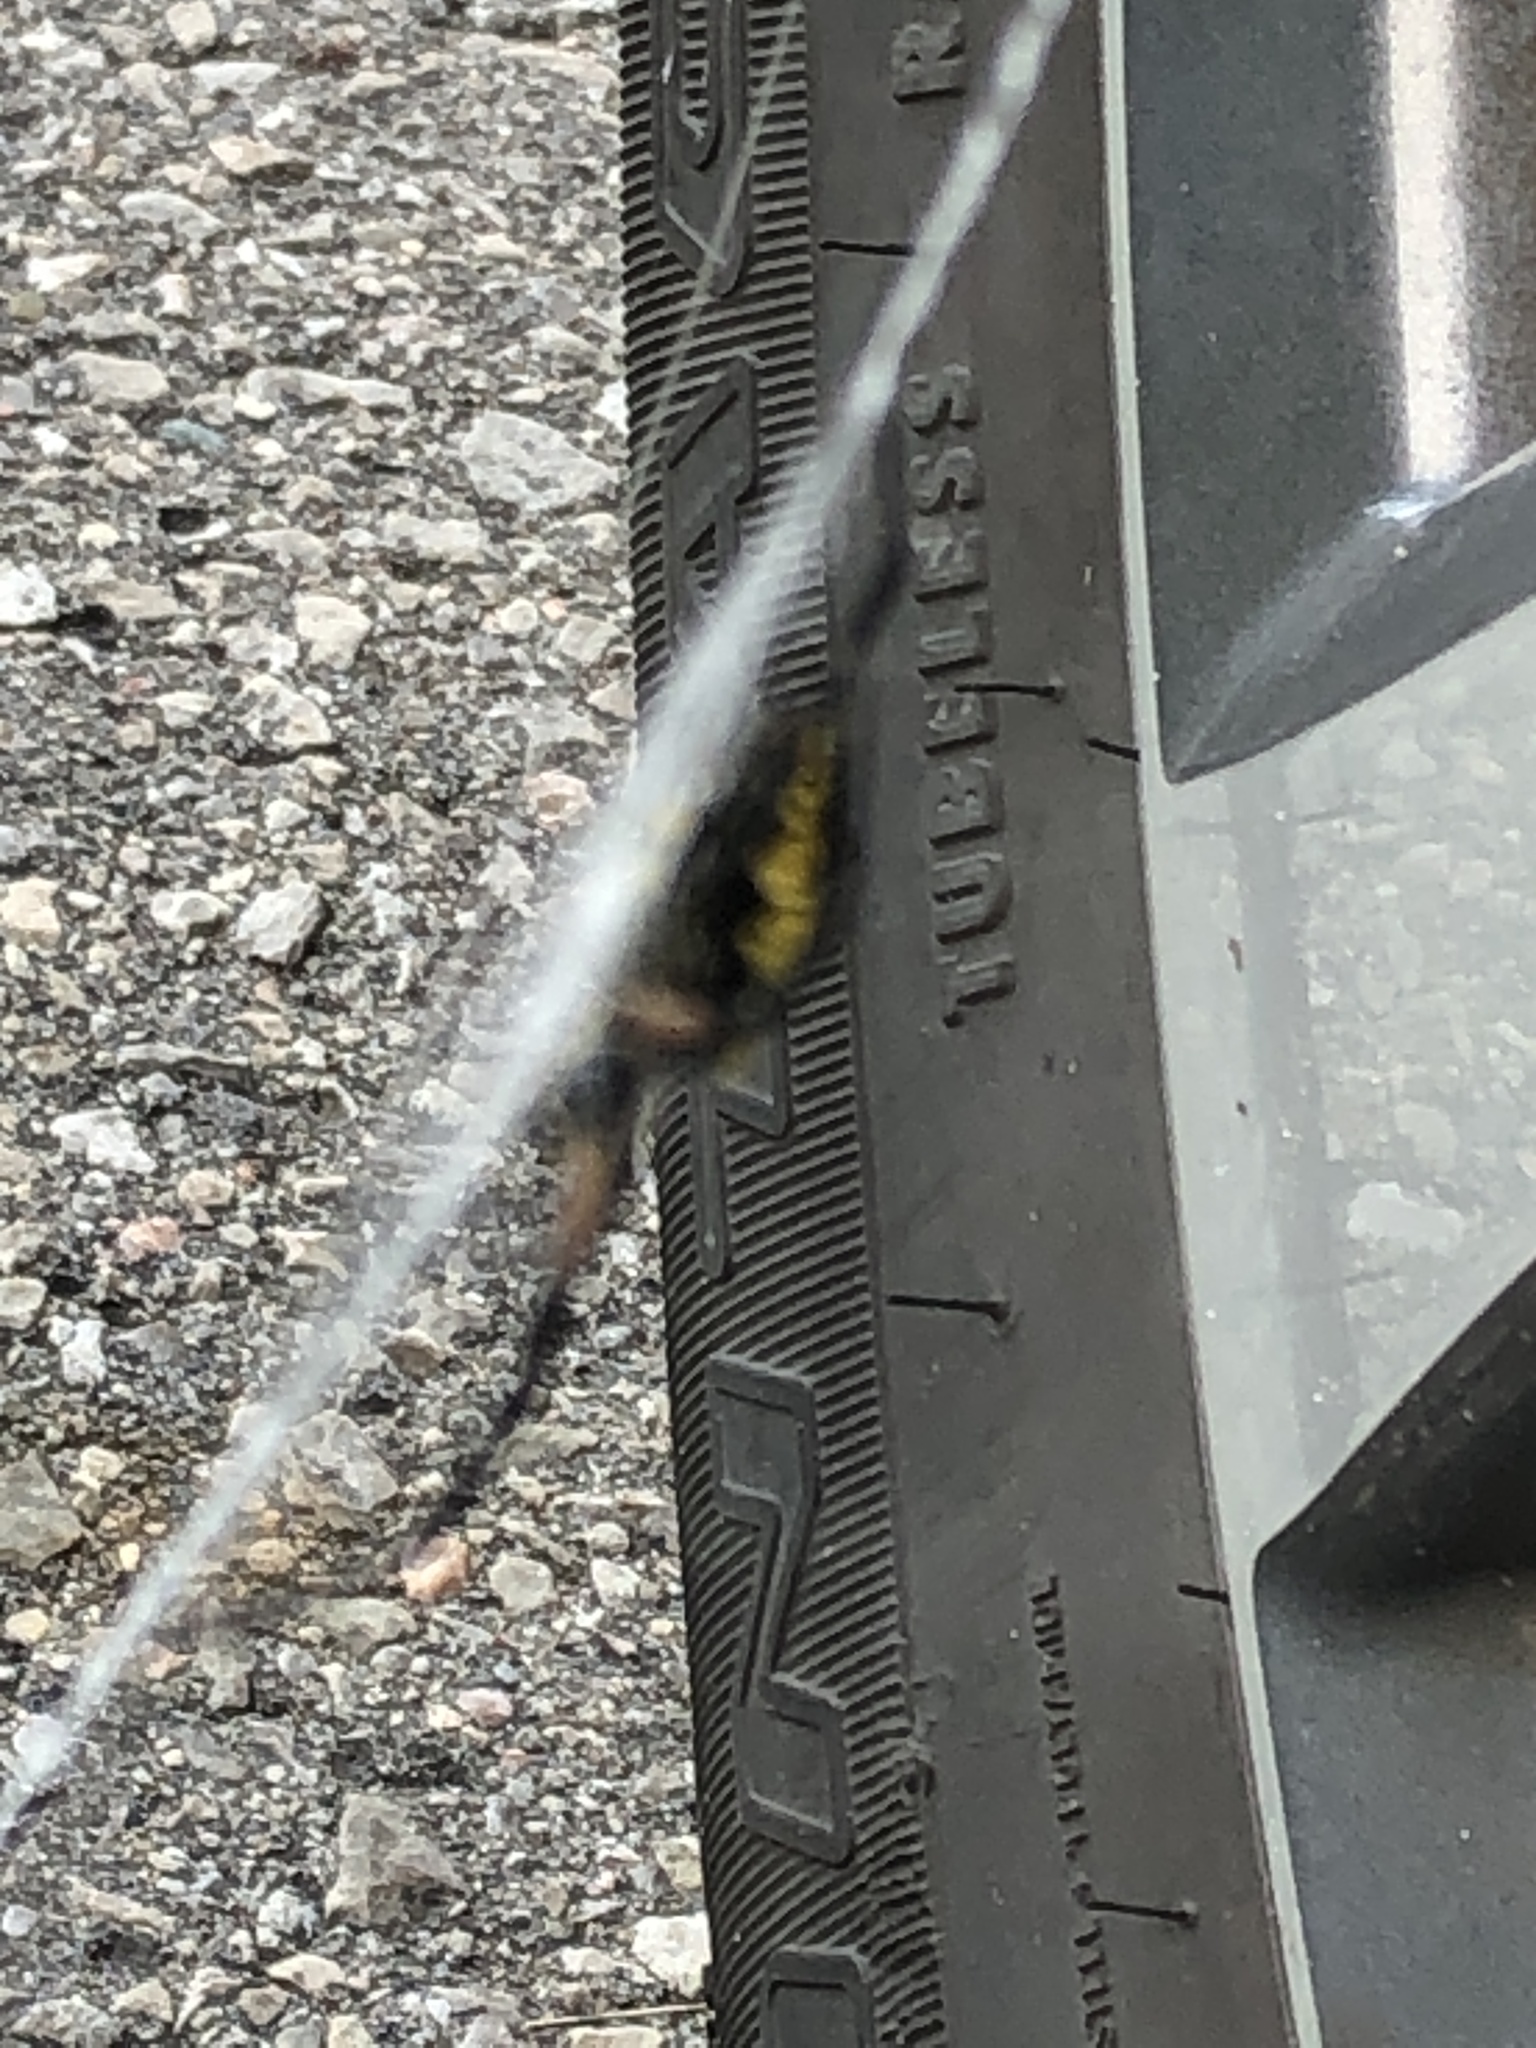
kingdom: Animalia
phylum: Arthropoda
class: Arachnida
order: Araneae
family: Araneidae
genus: Argiope
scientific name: Argiope aurantia
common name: Orb weavers
